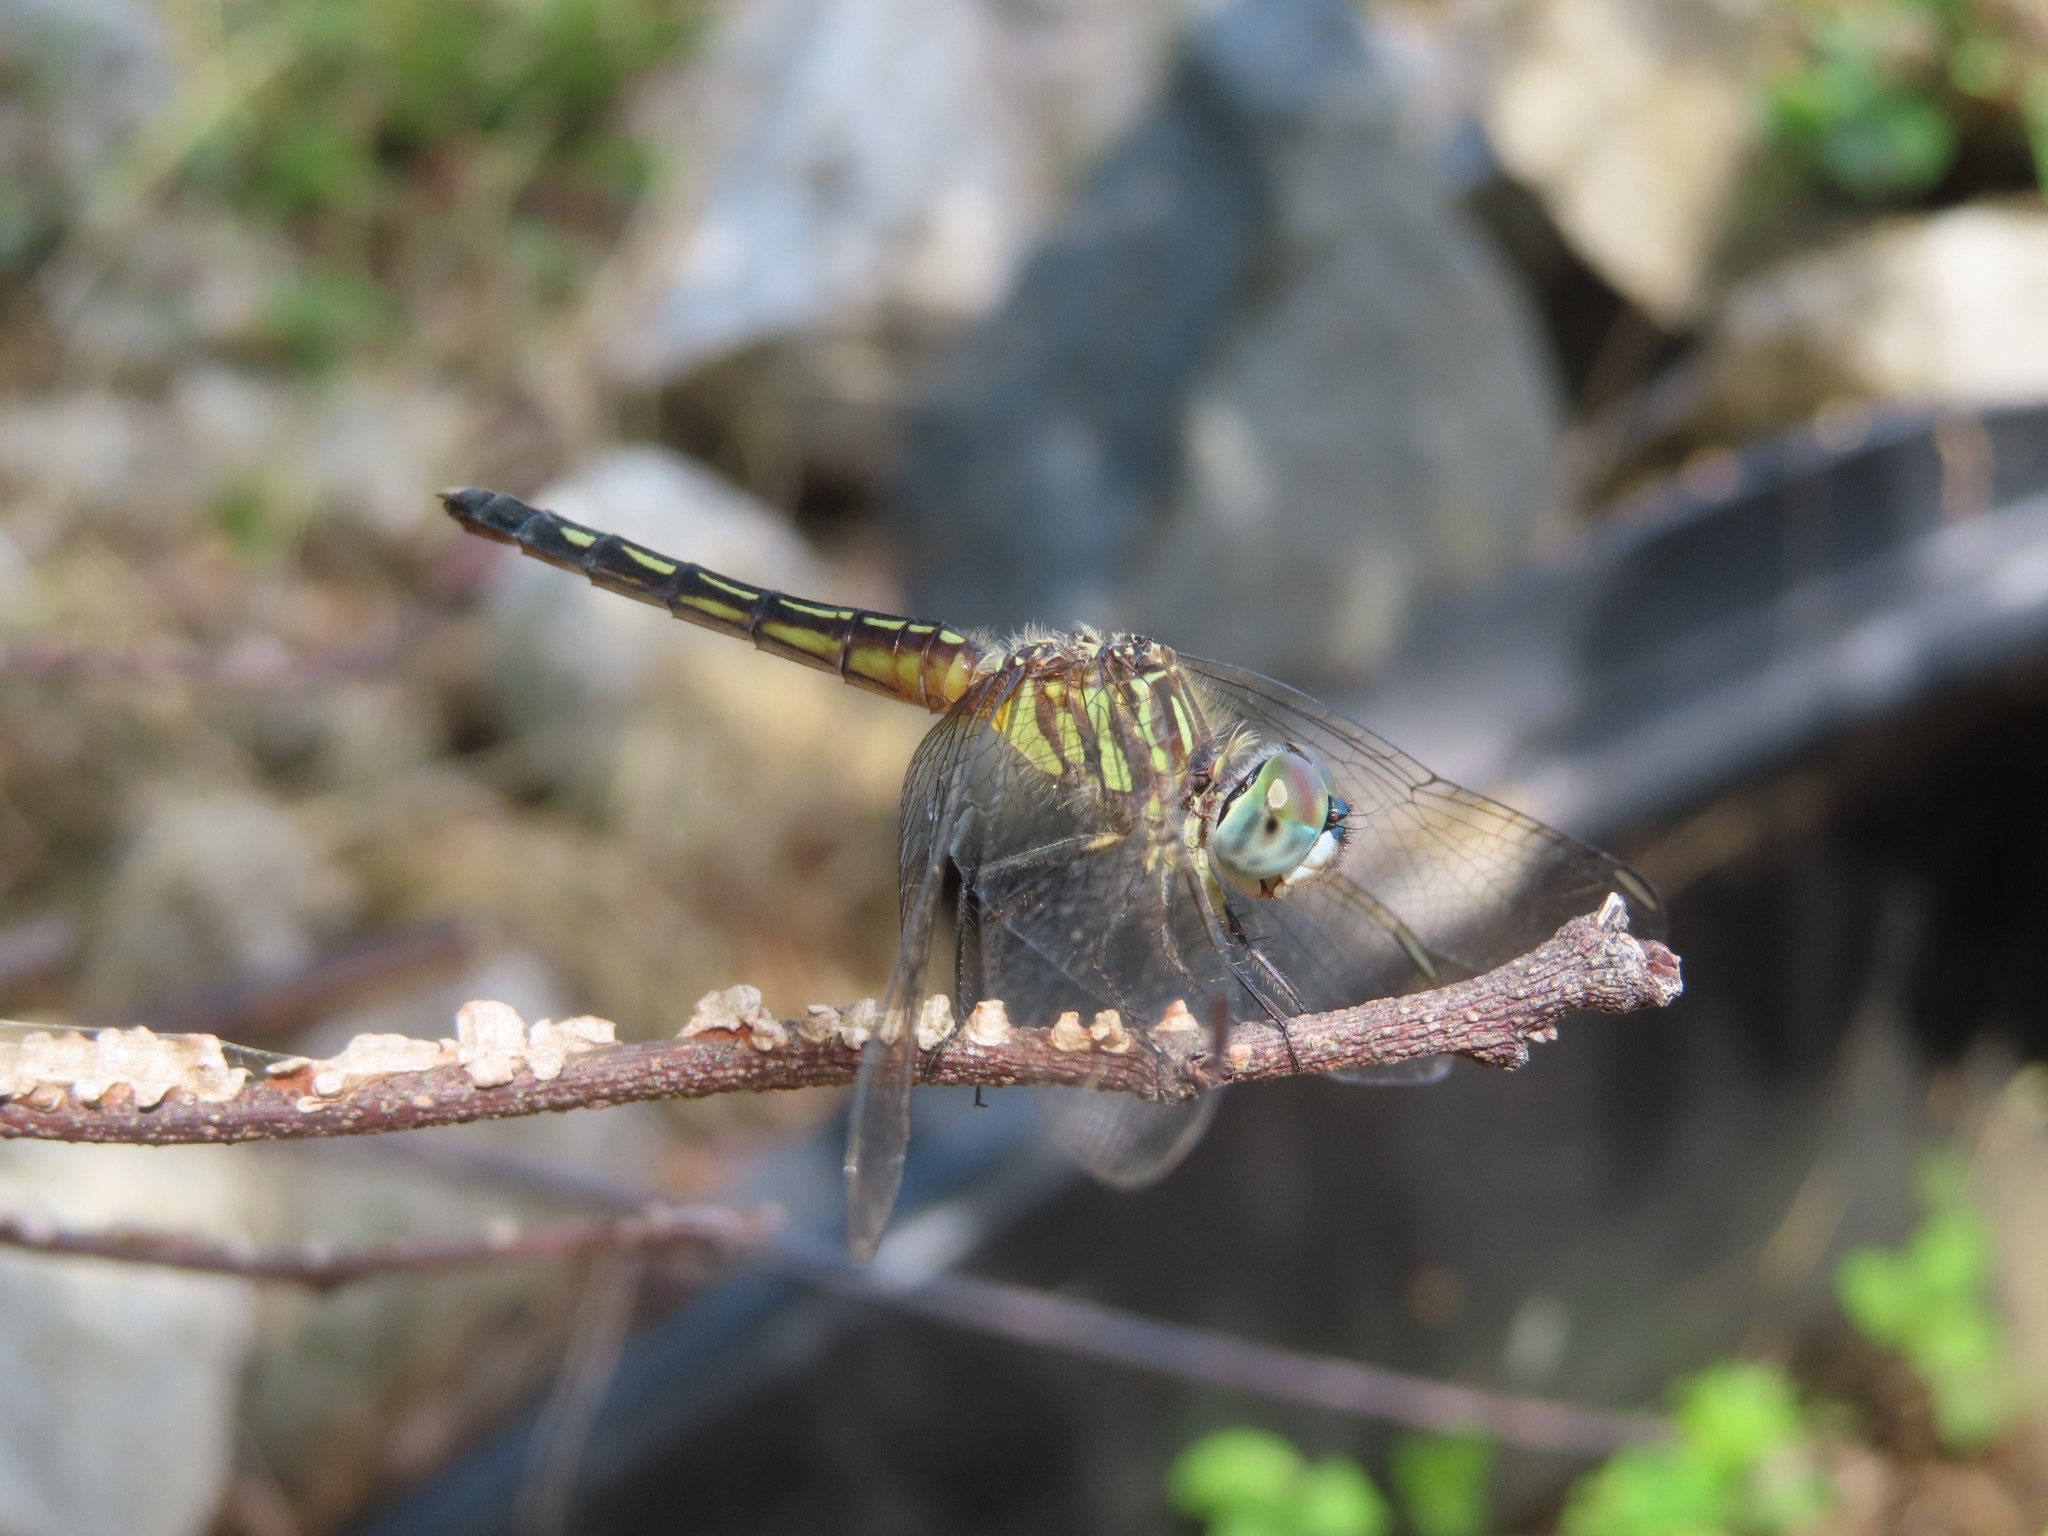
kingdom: Animalia
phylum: Arthropoda
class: Insecta
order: Odonata
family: Libellulidae
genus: Pachydiplax
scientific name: Pachydiplax longipennis
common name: Blue dasher
